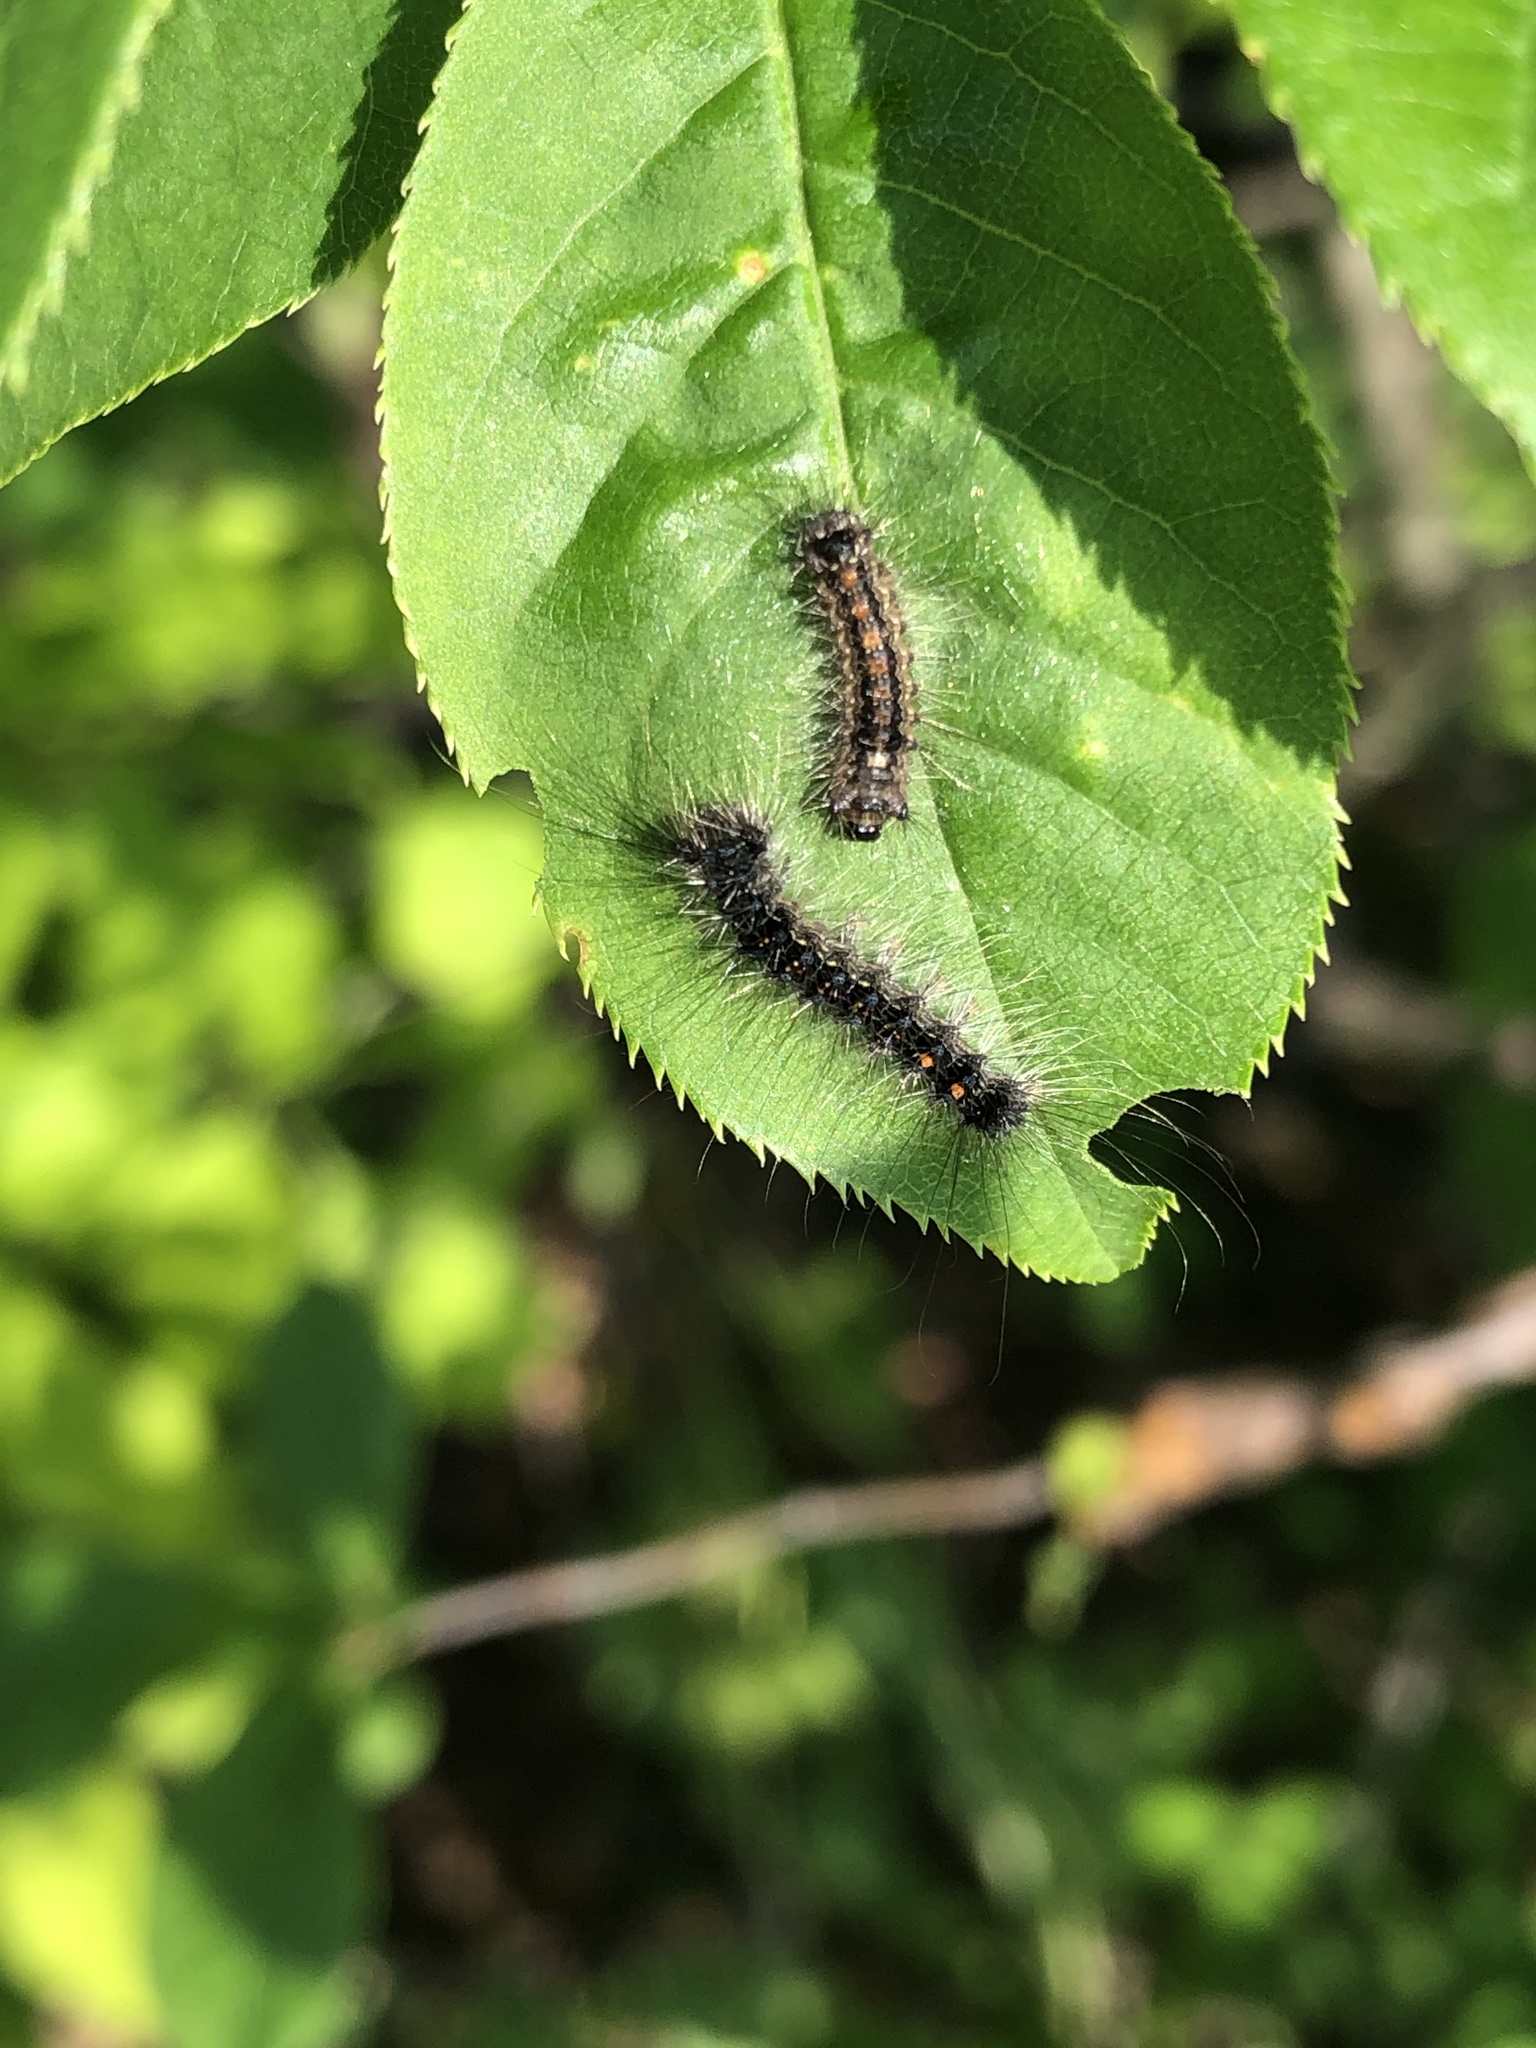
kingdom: Animalia
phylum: Arthropoda
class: Insecta
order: Lepidoptera
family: Erebidae
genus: Lymantria
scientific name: Lymantria dispar
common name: Gypsy moth
